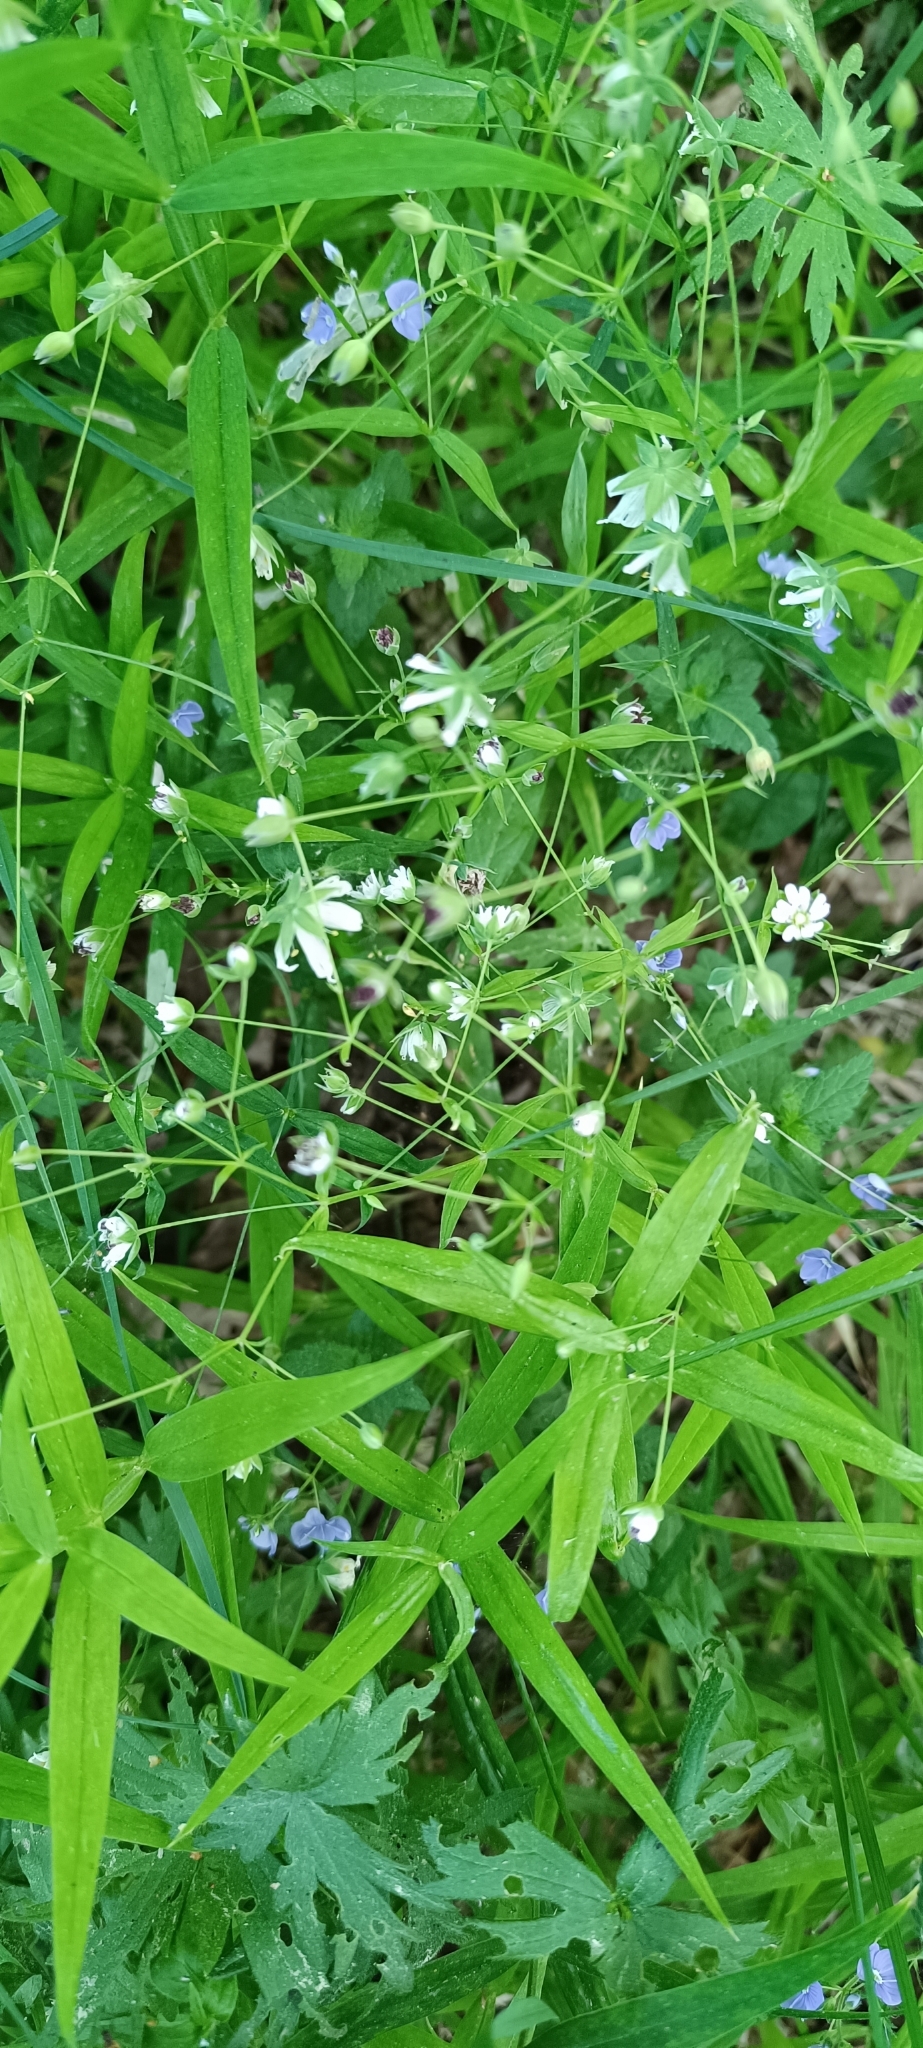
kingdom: Plantae
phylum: Tracheophyta
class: Magnoliopsida
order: Caryophyllales
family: Caryophyllaceae
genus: Rabelera
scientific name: Rabelera holostea
